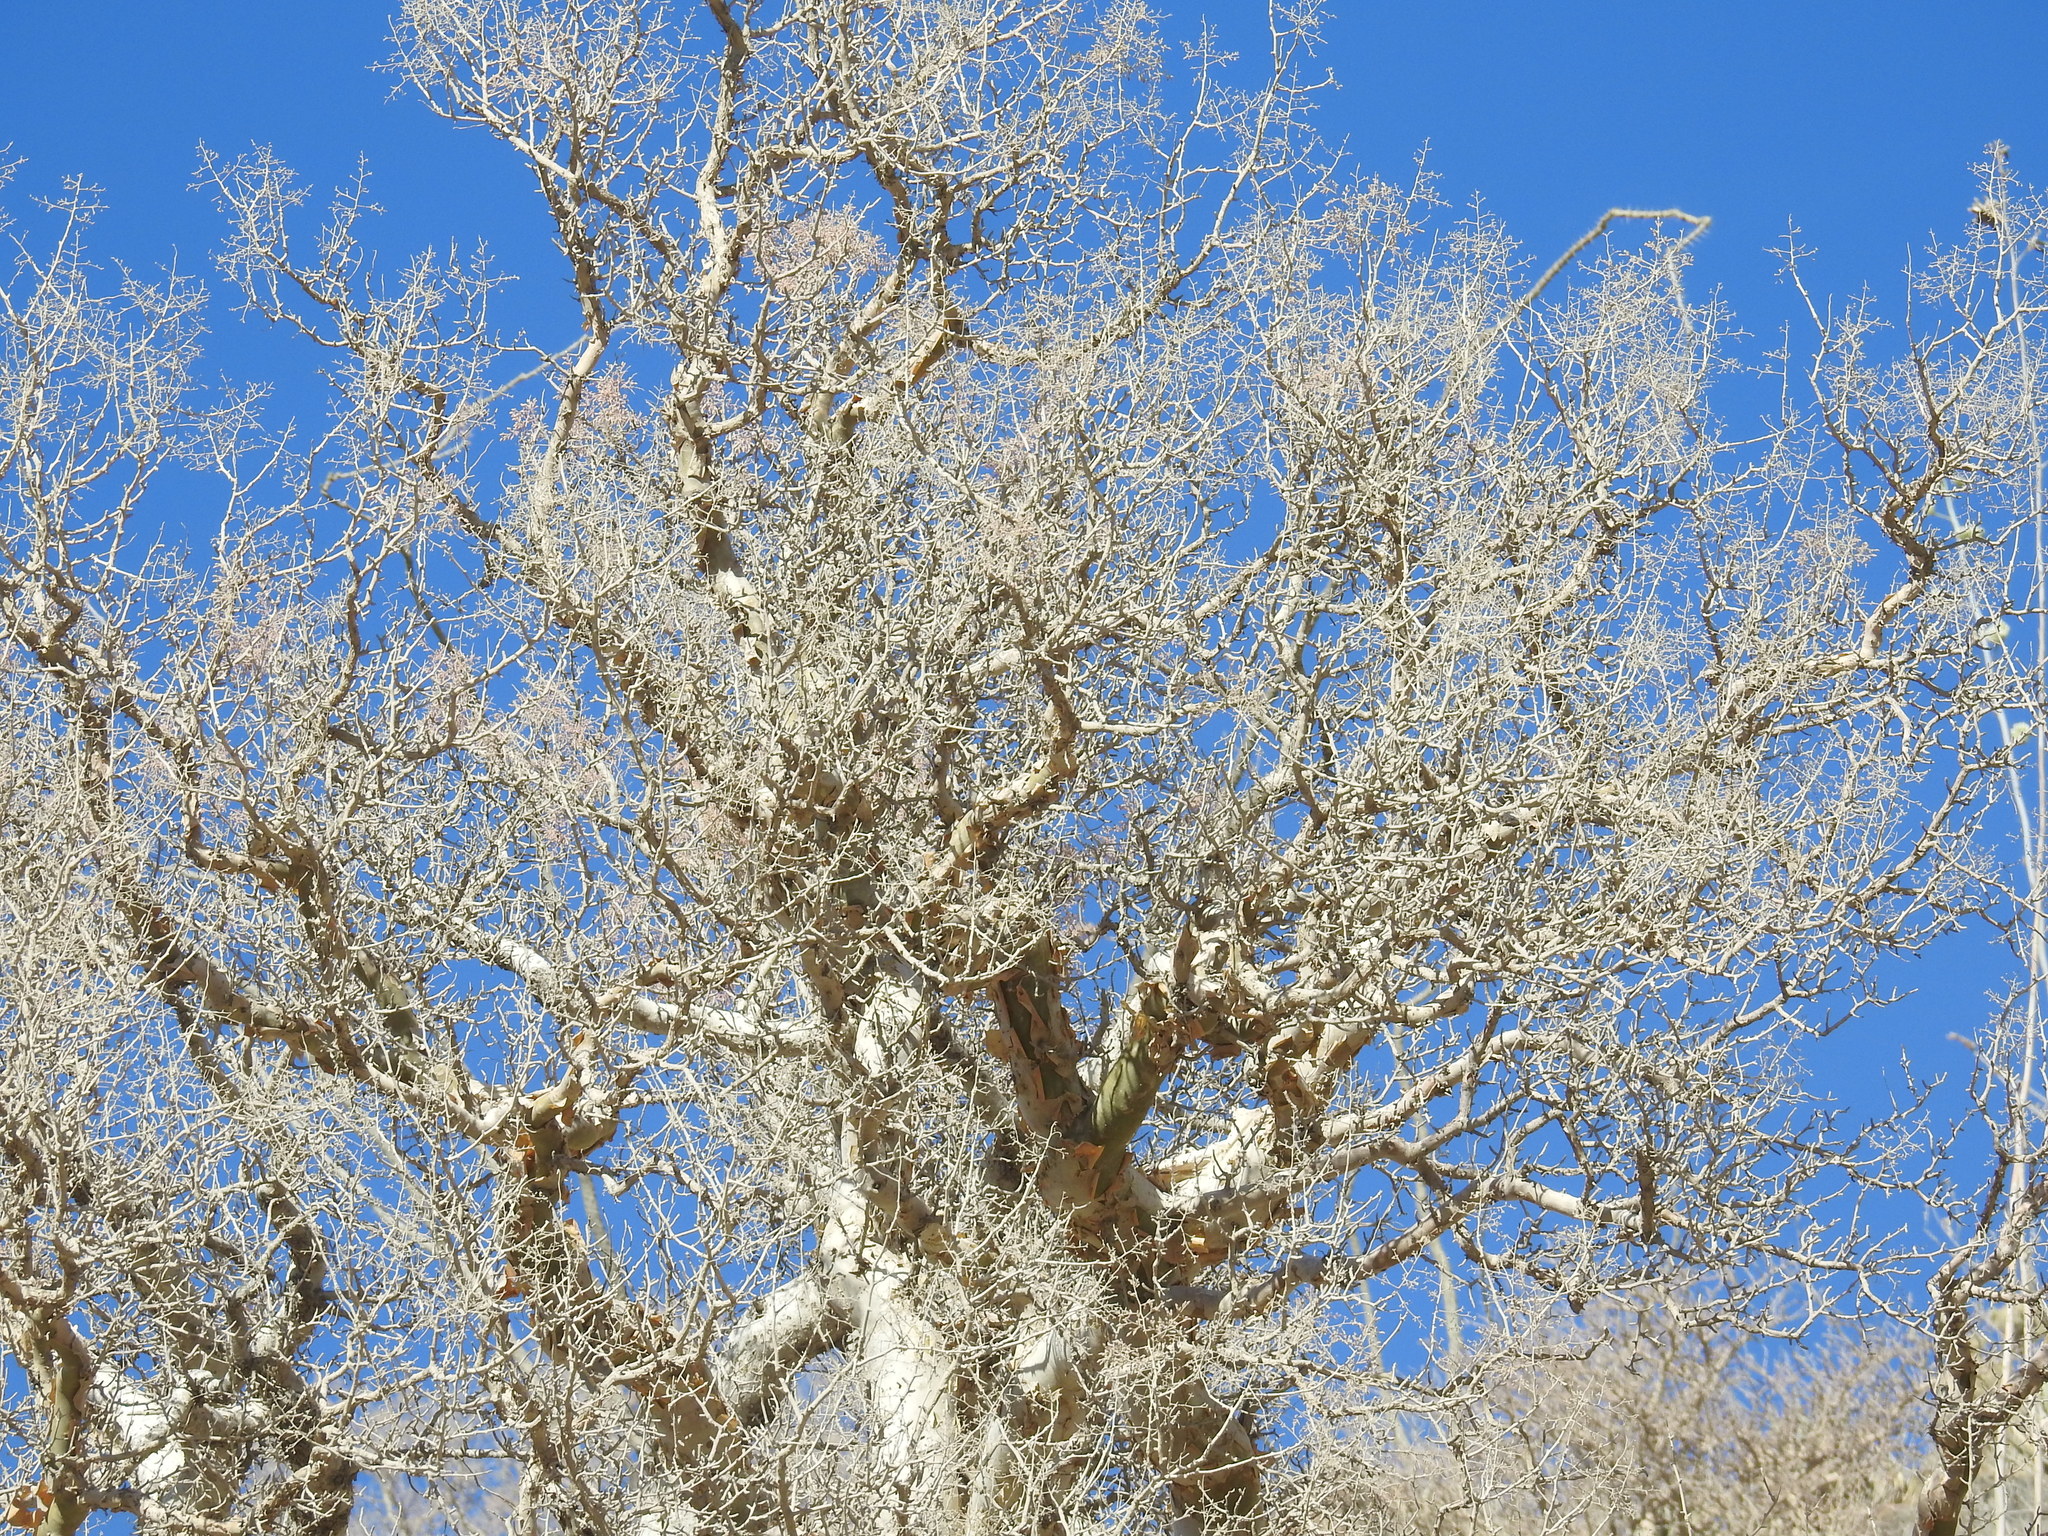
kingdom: Plantae
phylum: Tracheophyta
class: Magnoliopsida
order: Sapindales
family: Anacardiaceae
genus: Pachycormus
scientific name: Pachycormus discolor
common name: Succulent elephant trees
